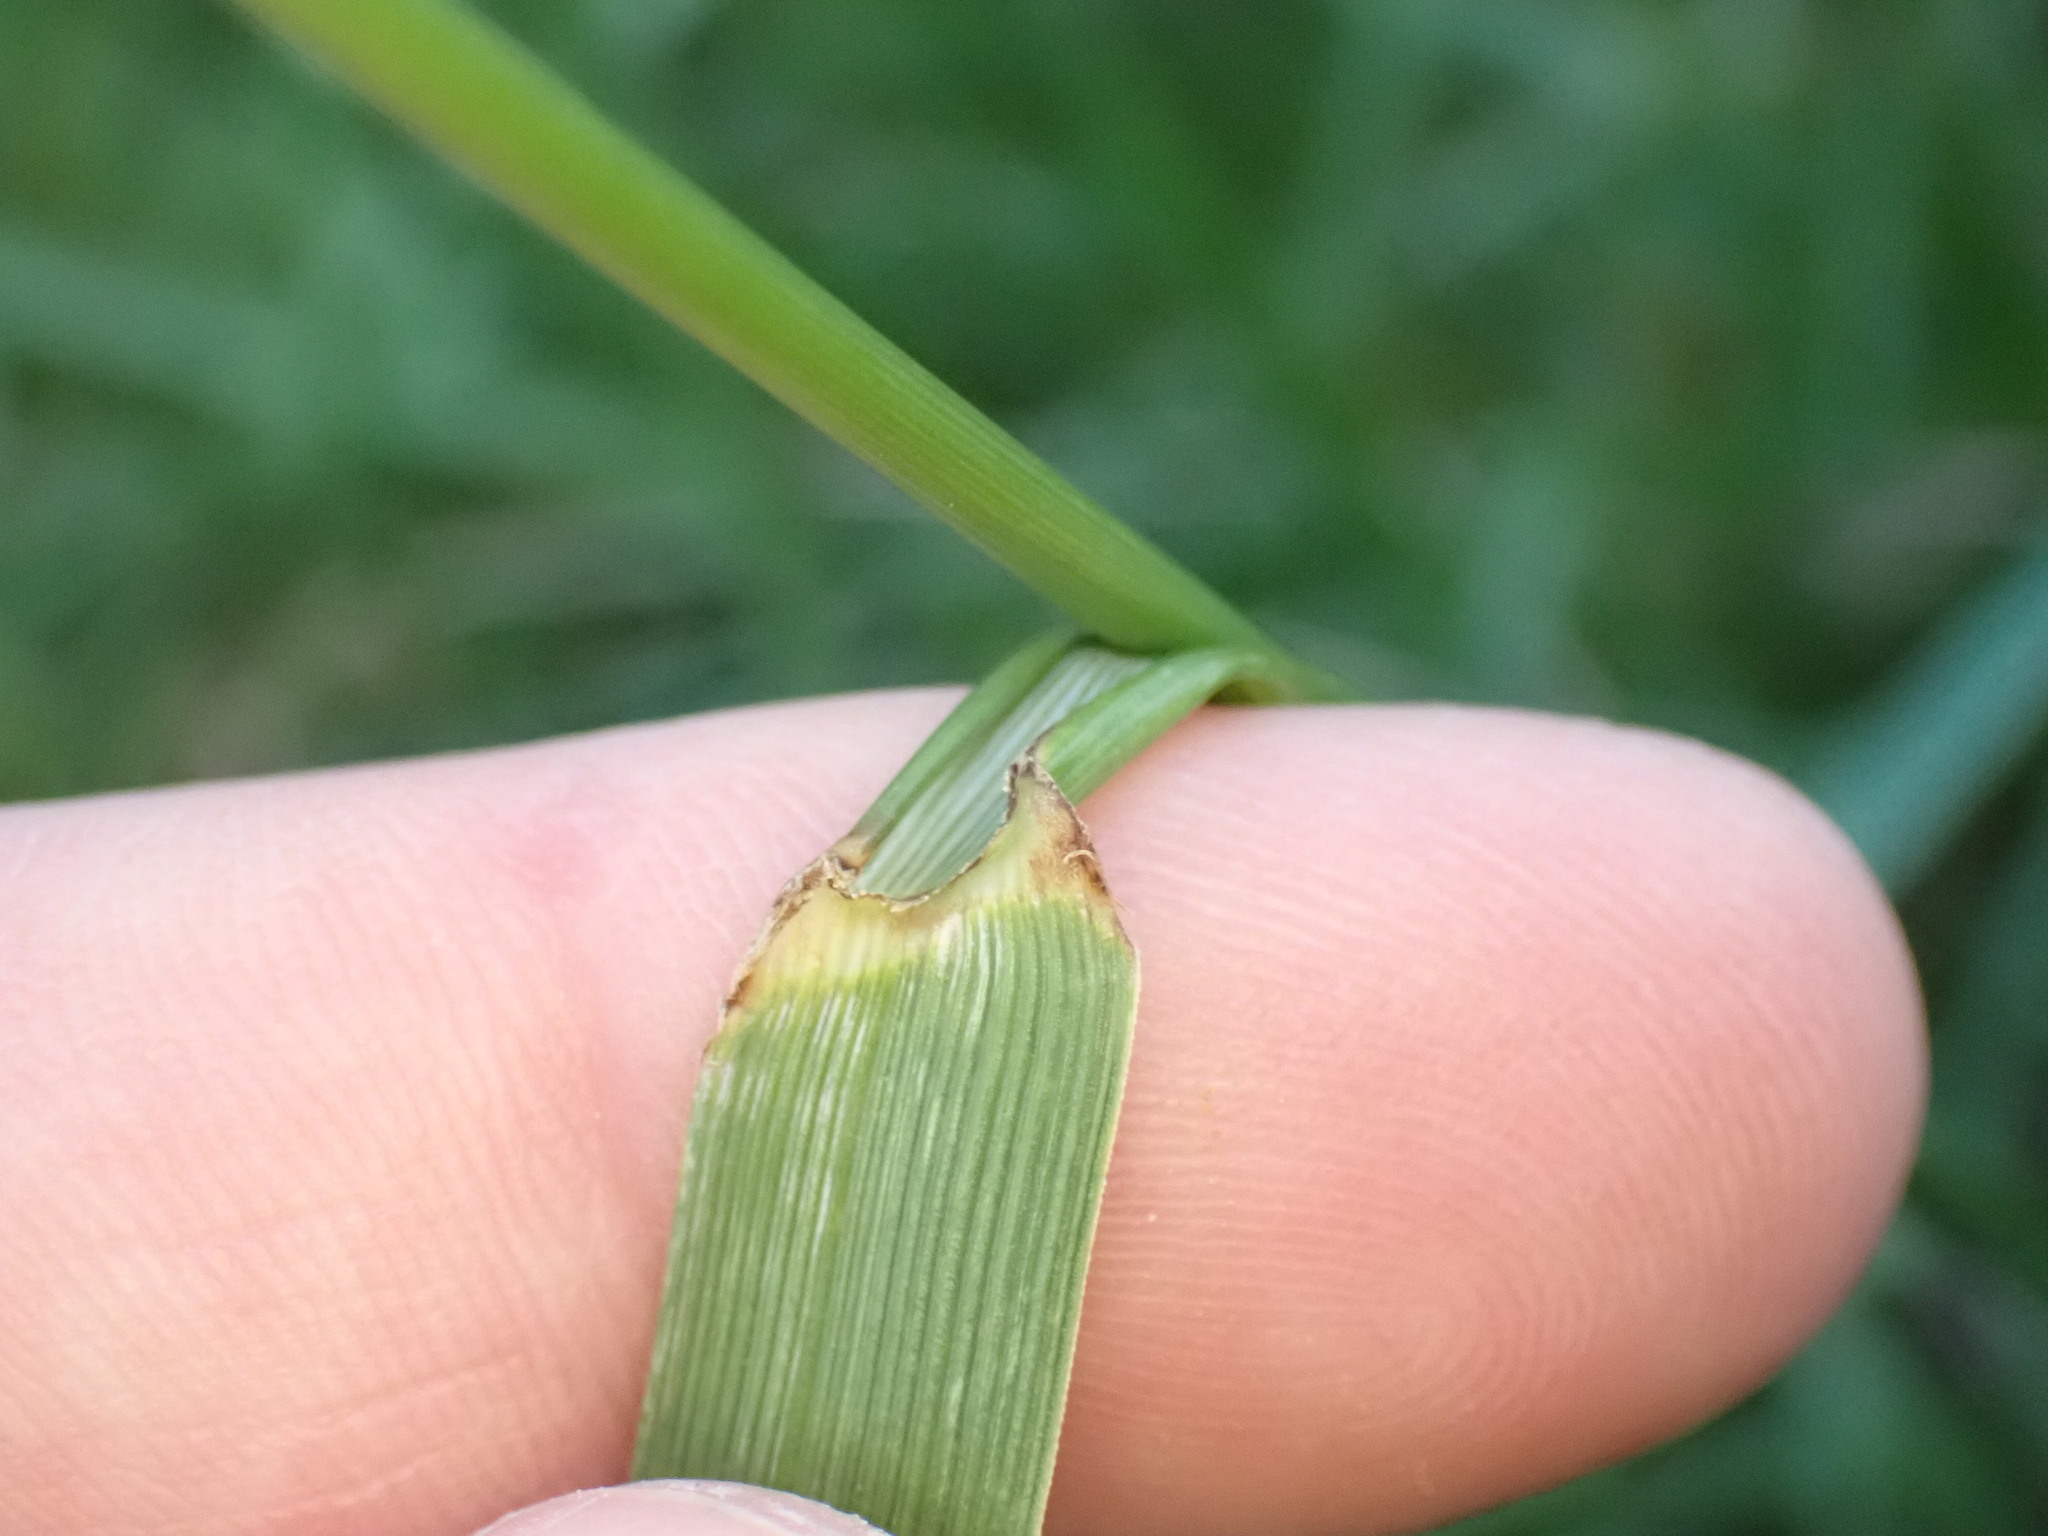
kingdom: Plantae
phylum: Tracheophyta
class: Liliopsida
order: Poales
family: Poaceae
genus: Lolium
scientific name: Lolium arundinaceum
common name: Reed fescue
